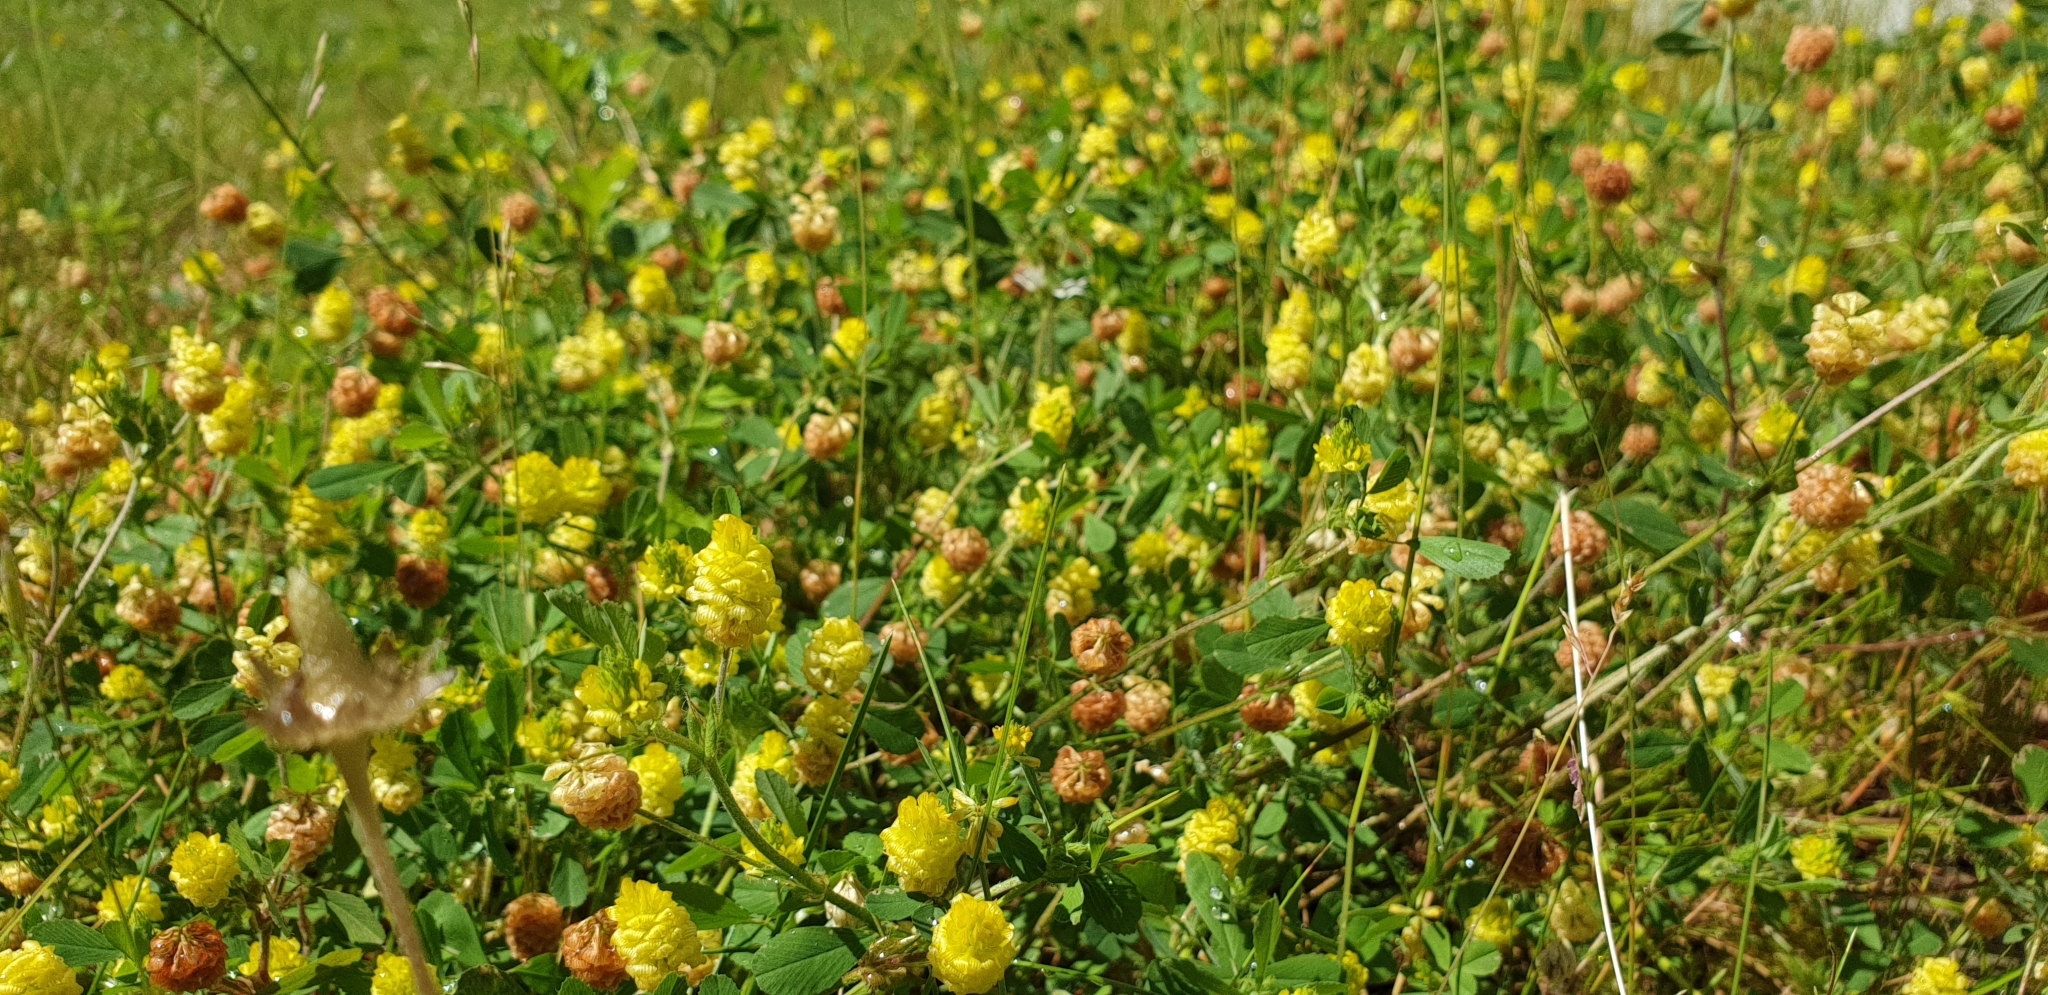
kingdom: Plantae
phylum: Tracheophyta
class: Magnoliopsida
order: Fabales
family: Fabaceae
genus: Trifolium
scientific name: Trifolium campestre
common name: Field clover
